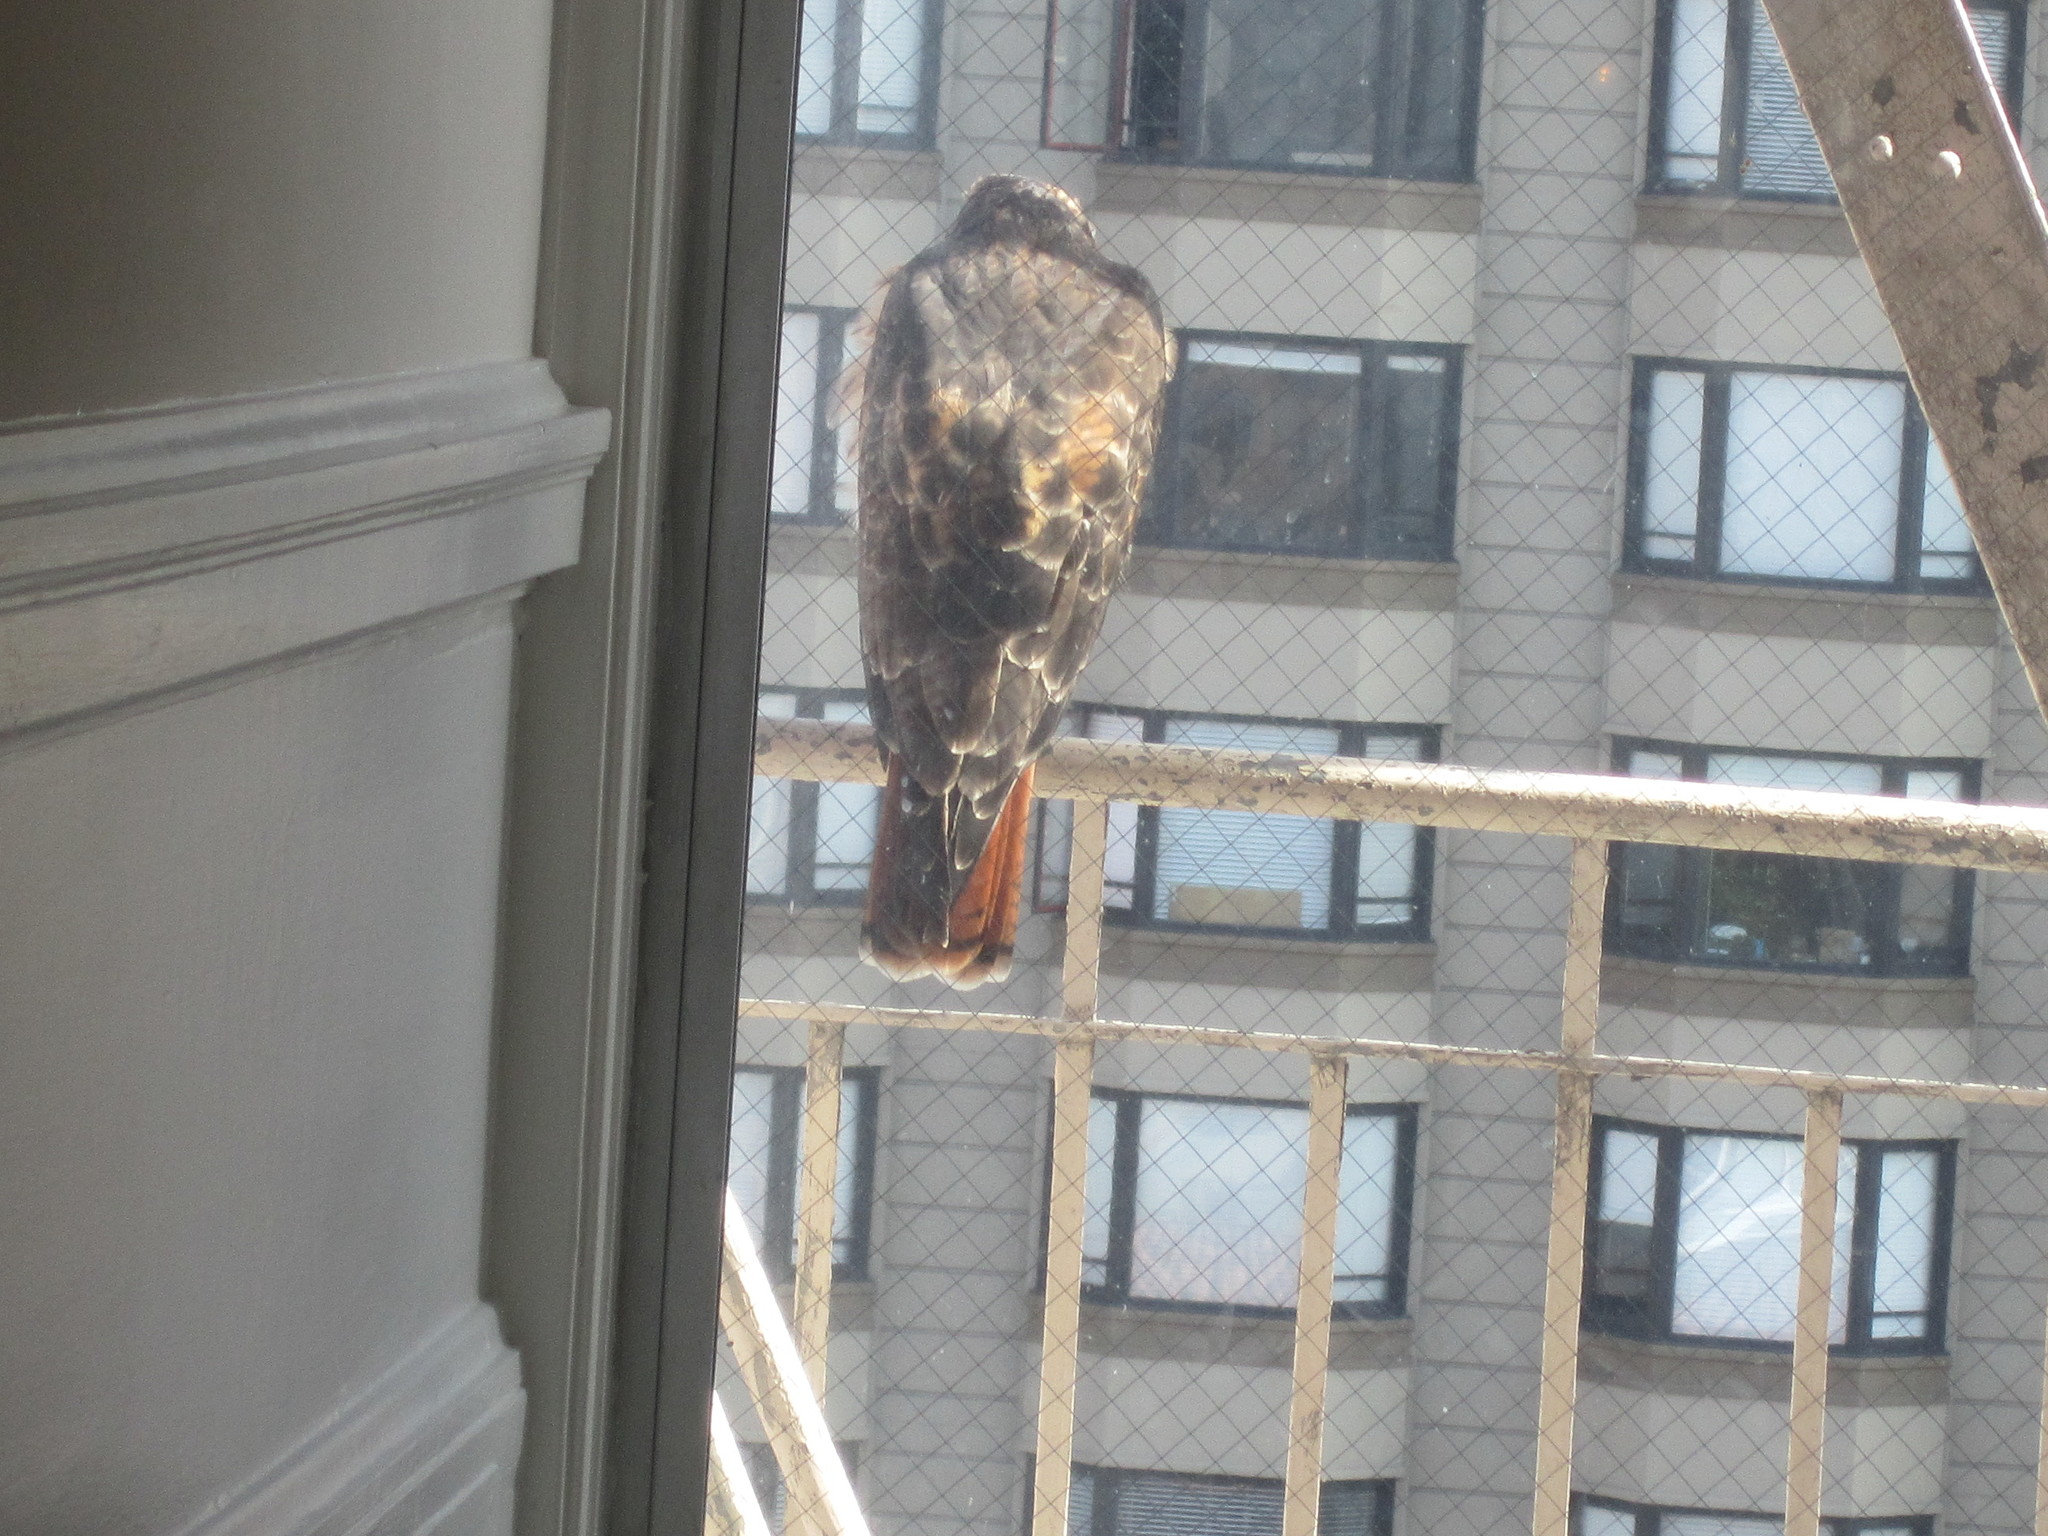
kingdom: Animalia
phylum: Chordata
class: Aves
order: Accipitriformes
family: Accipitridae
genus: Buteo
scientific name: Buteo jamaicensis
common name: Red-tailed hawk
